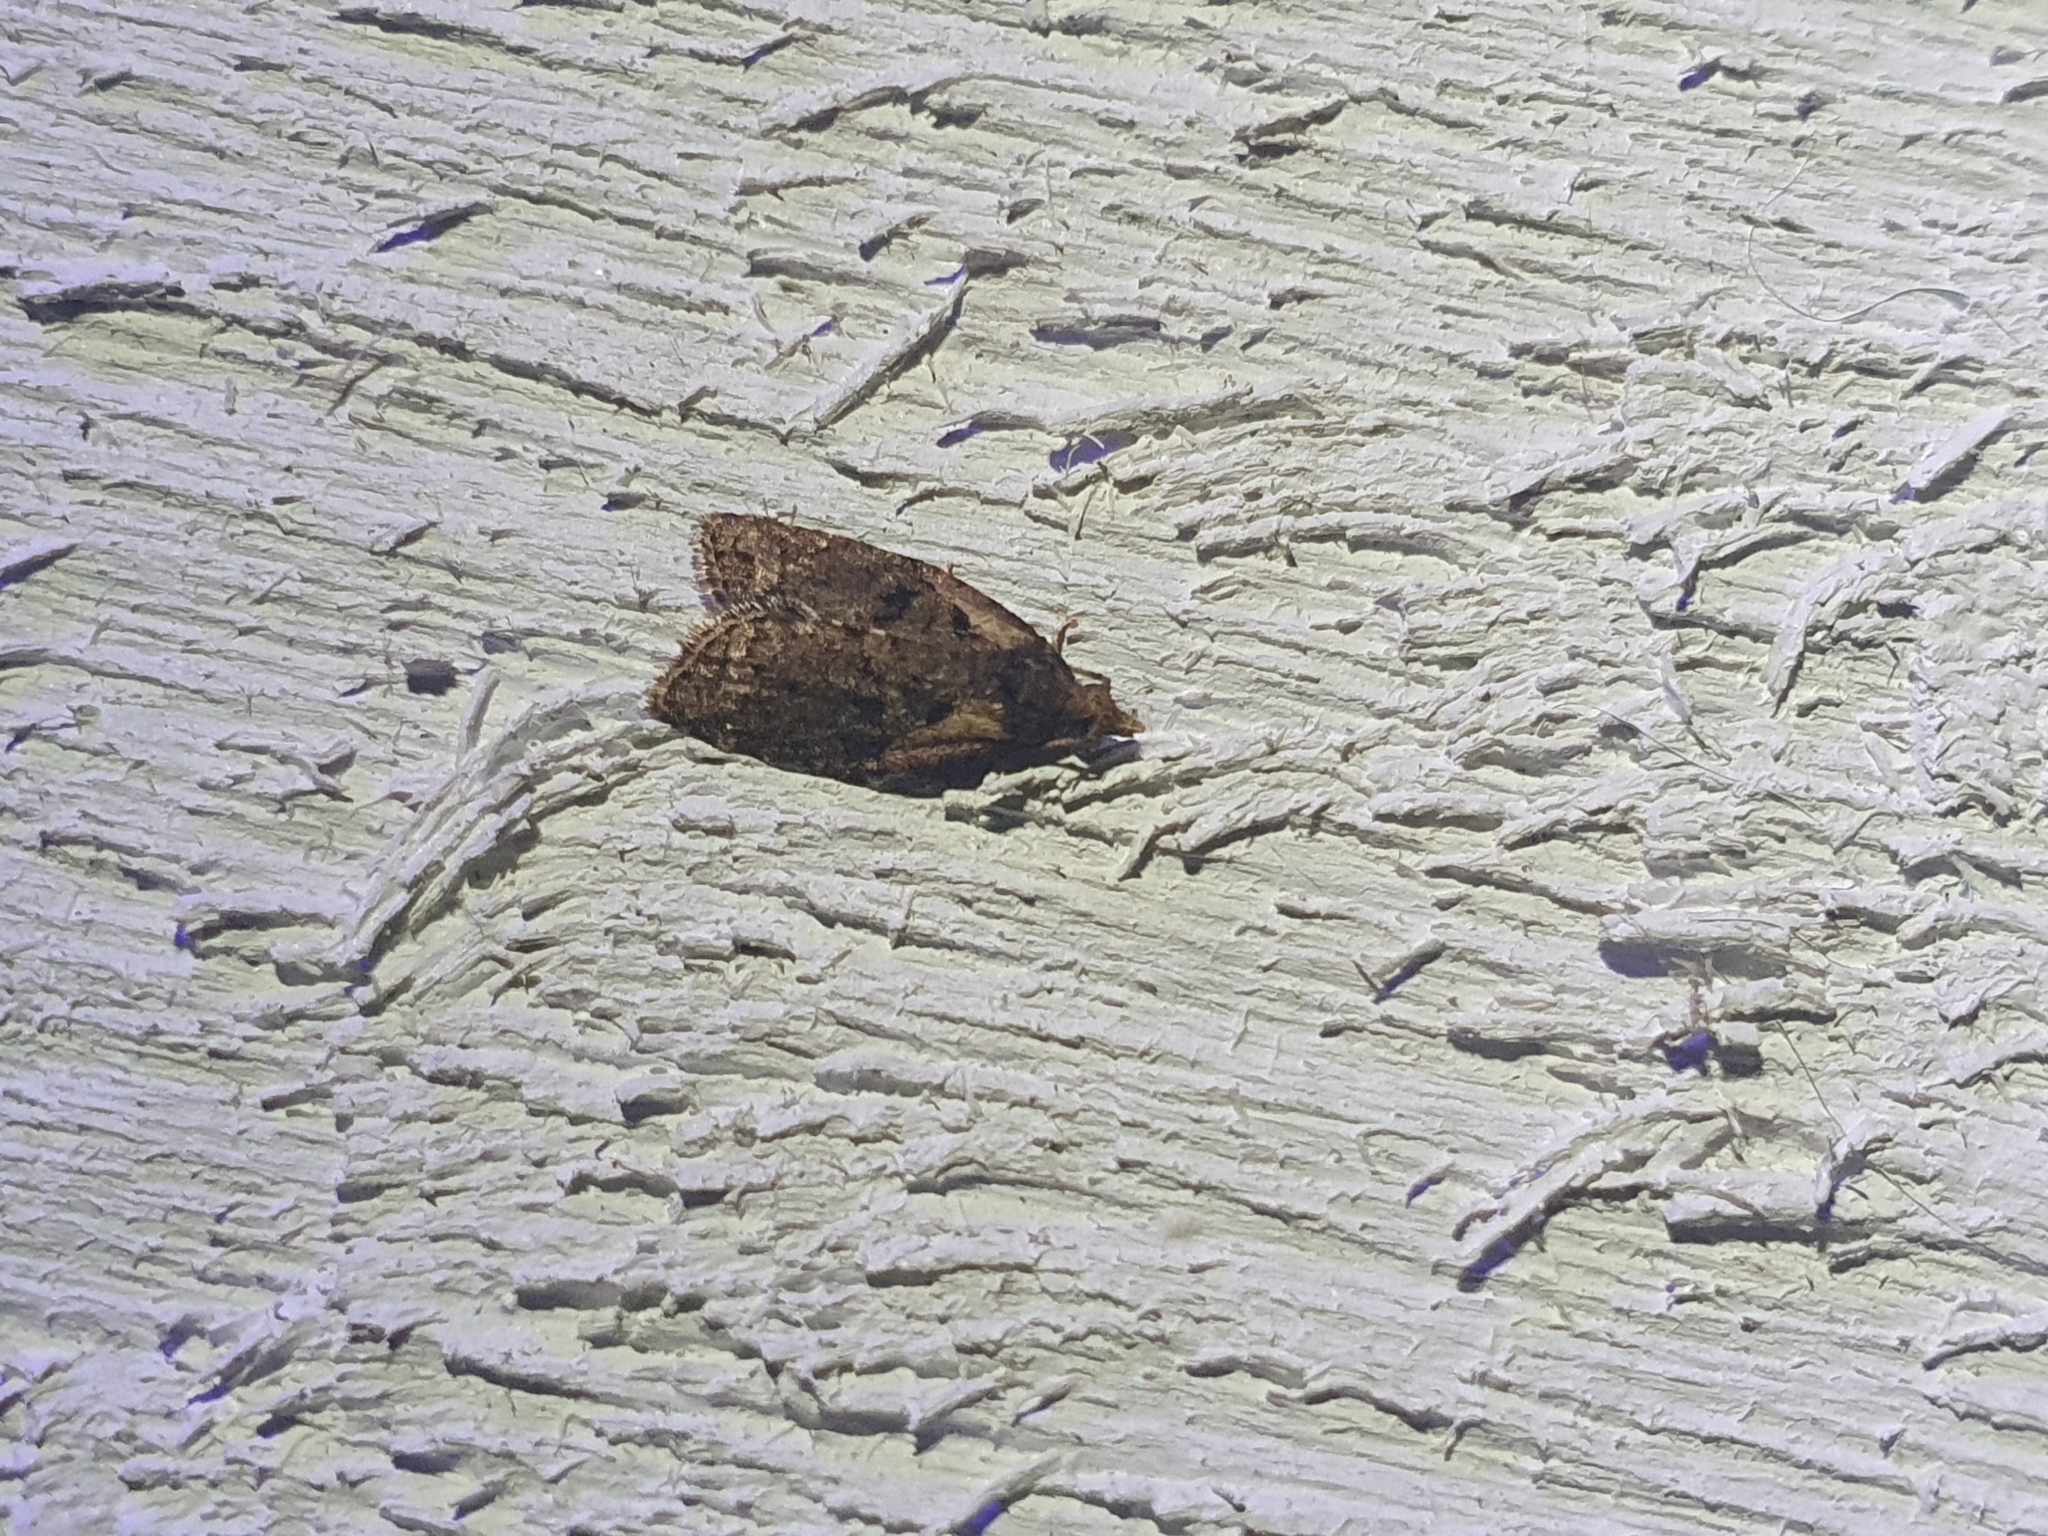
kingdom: Animalia
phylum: Arthropoda
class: Insecta
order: Lepidoptera
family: Tortricidae
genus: Capua
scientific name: Capua intractana
